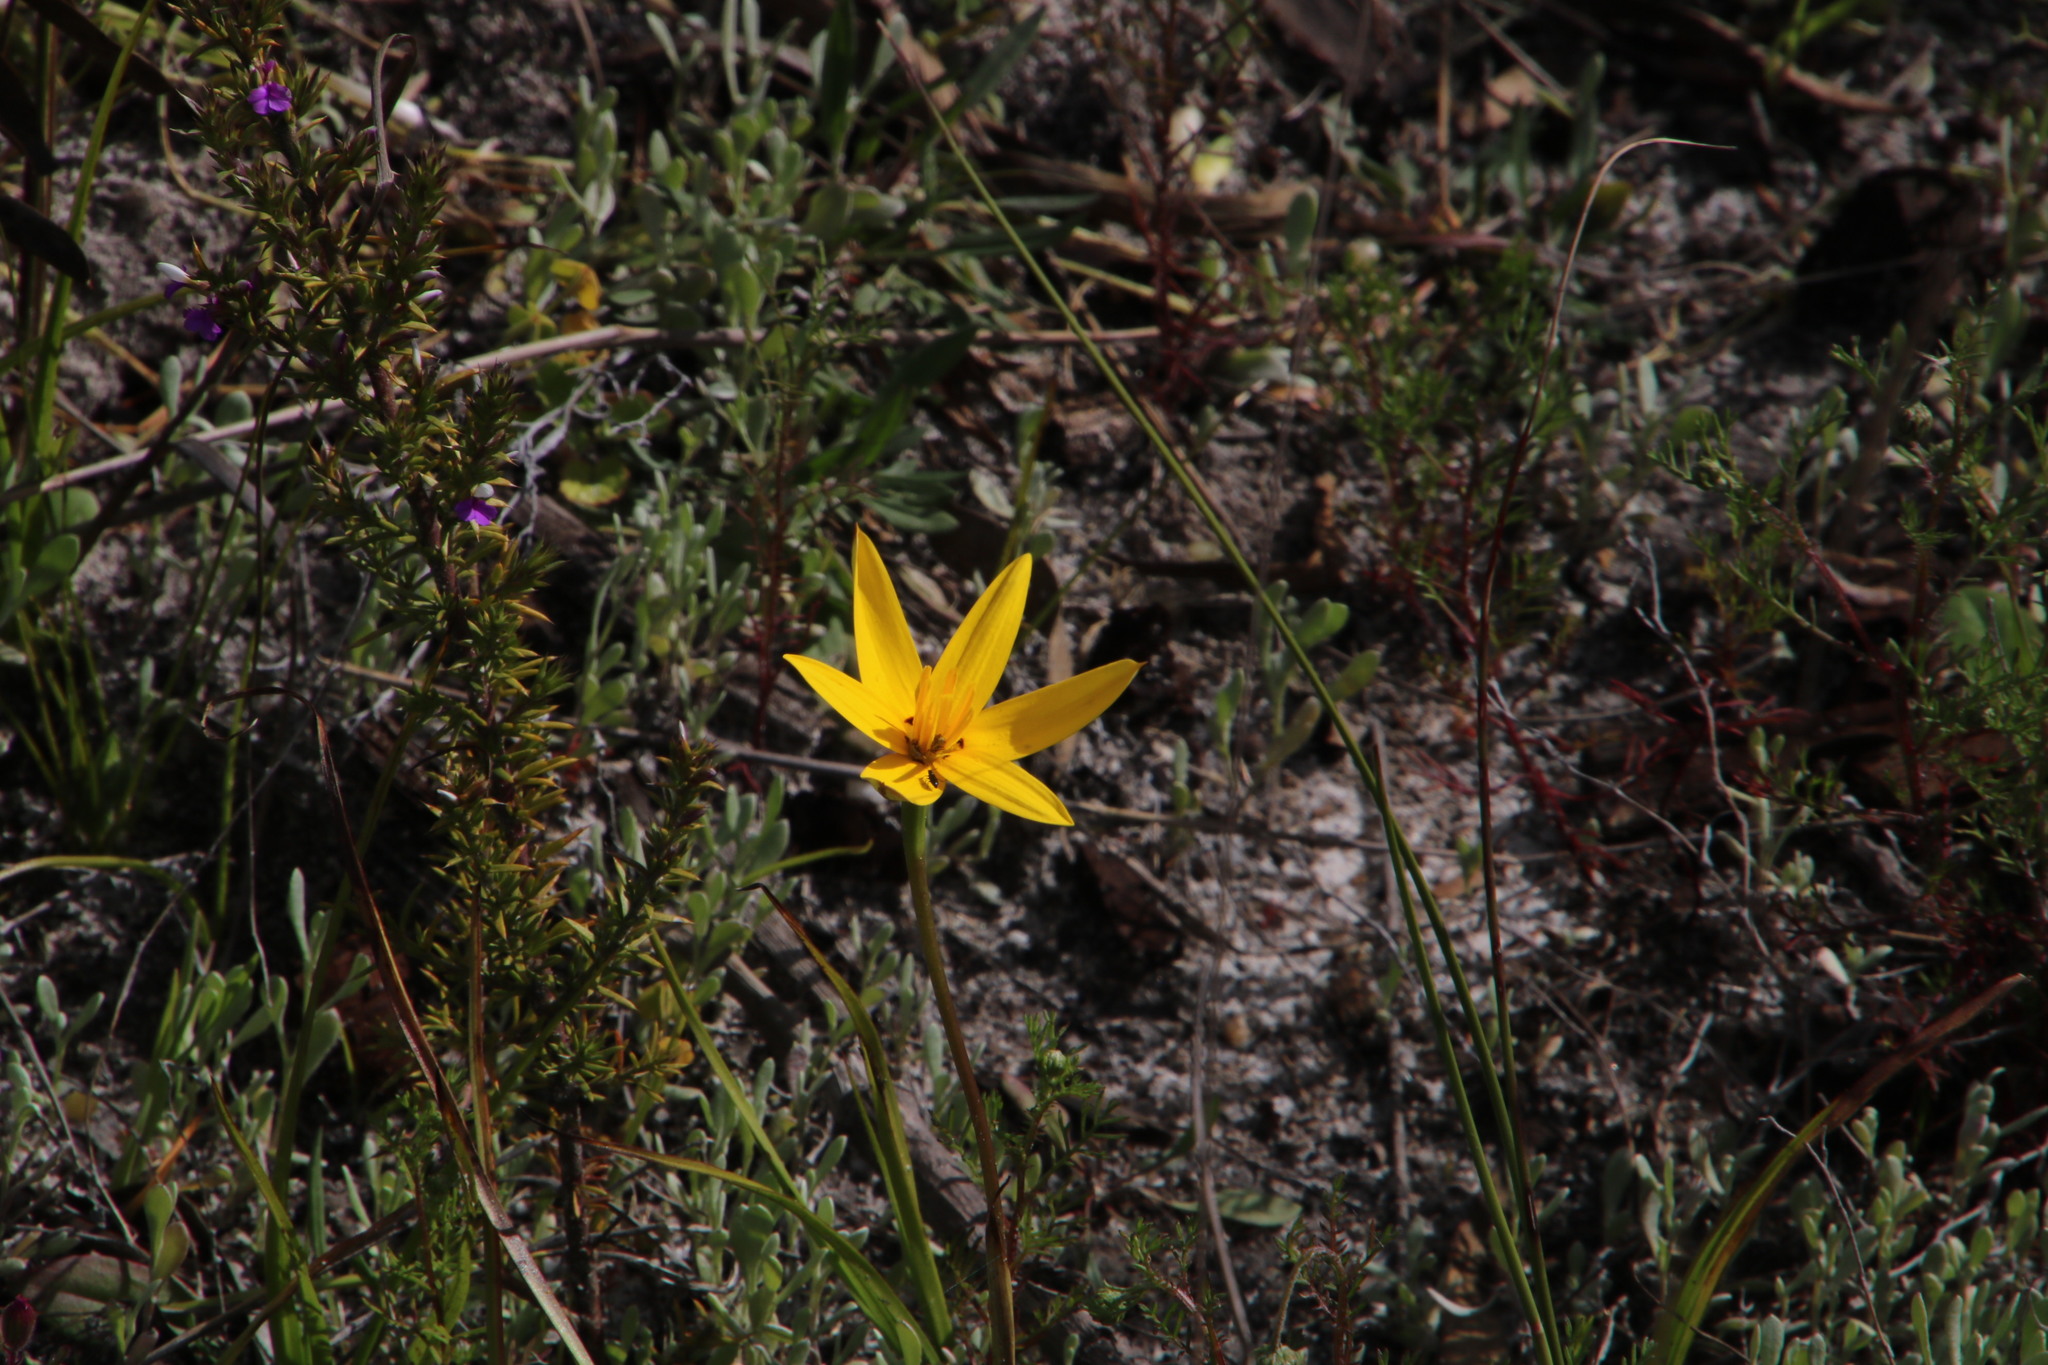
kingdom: Plantae
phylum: Tracheophyta
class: Liliopsida
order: Asparagales
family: Hypoxidaceae
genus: Pauridia
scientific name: Pauridia capensis
